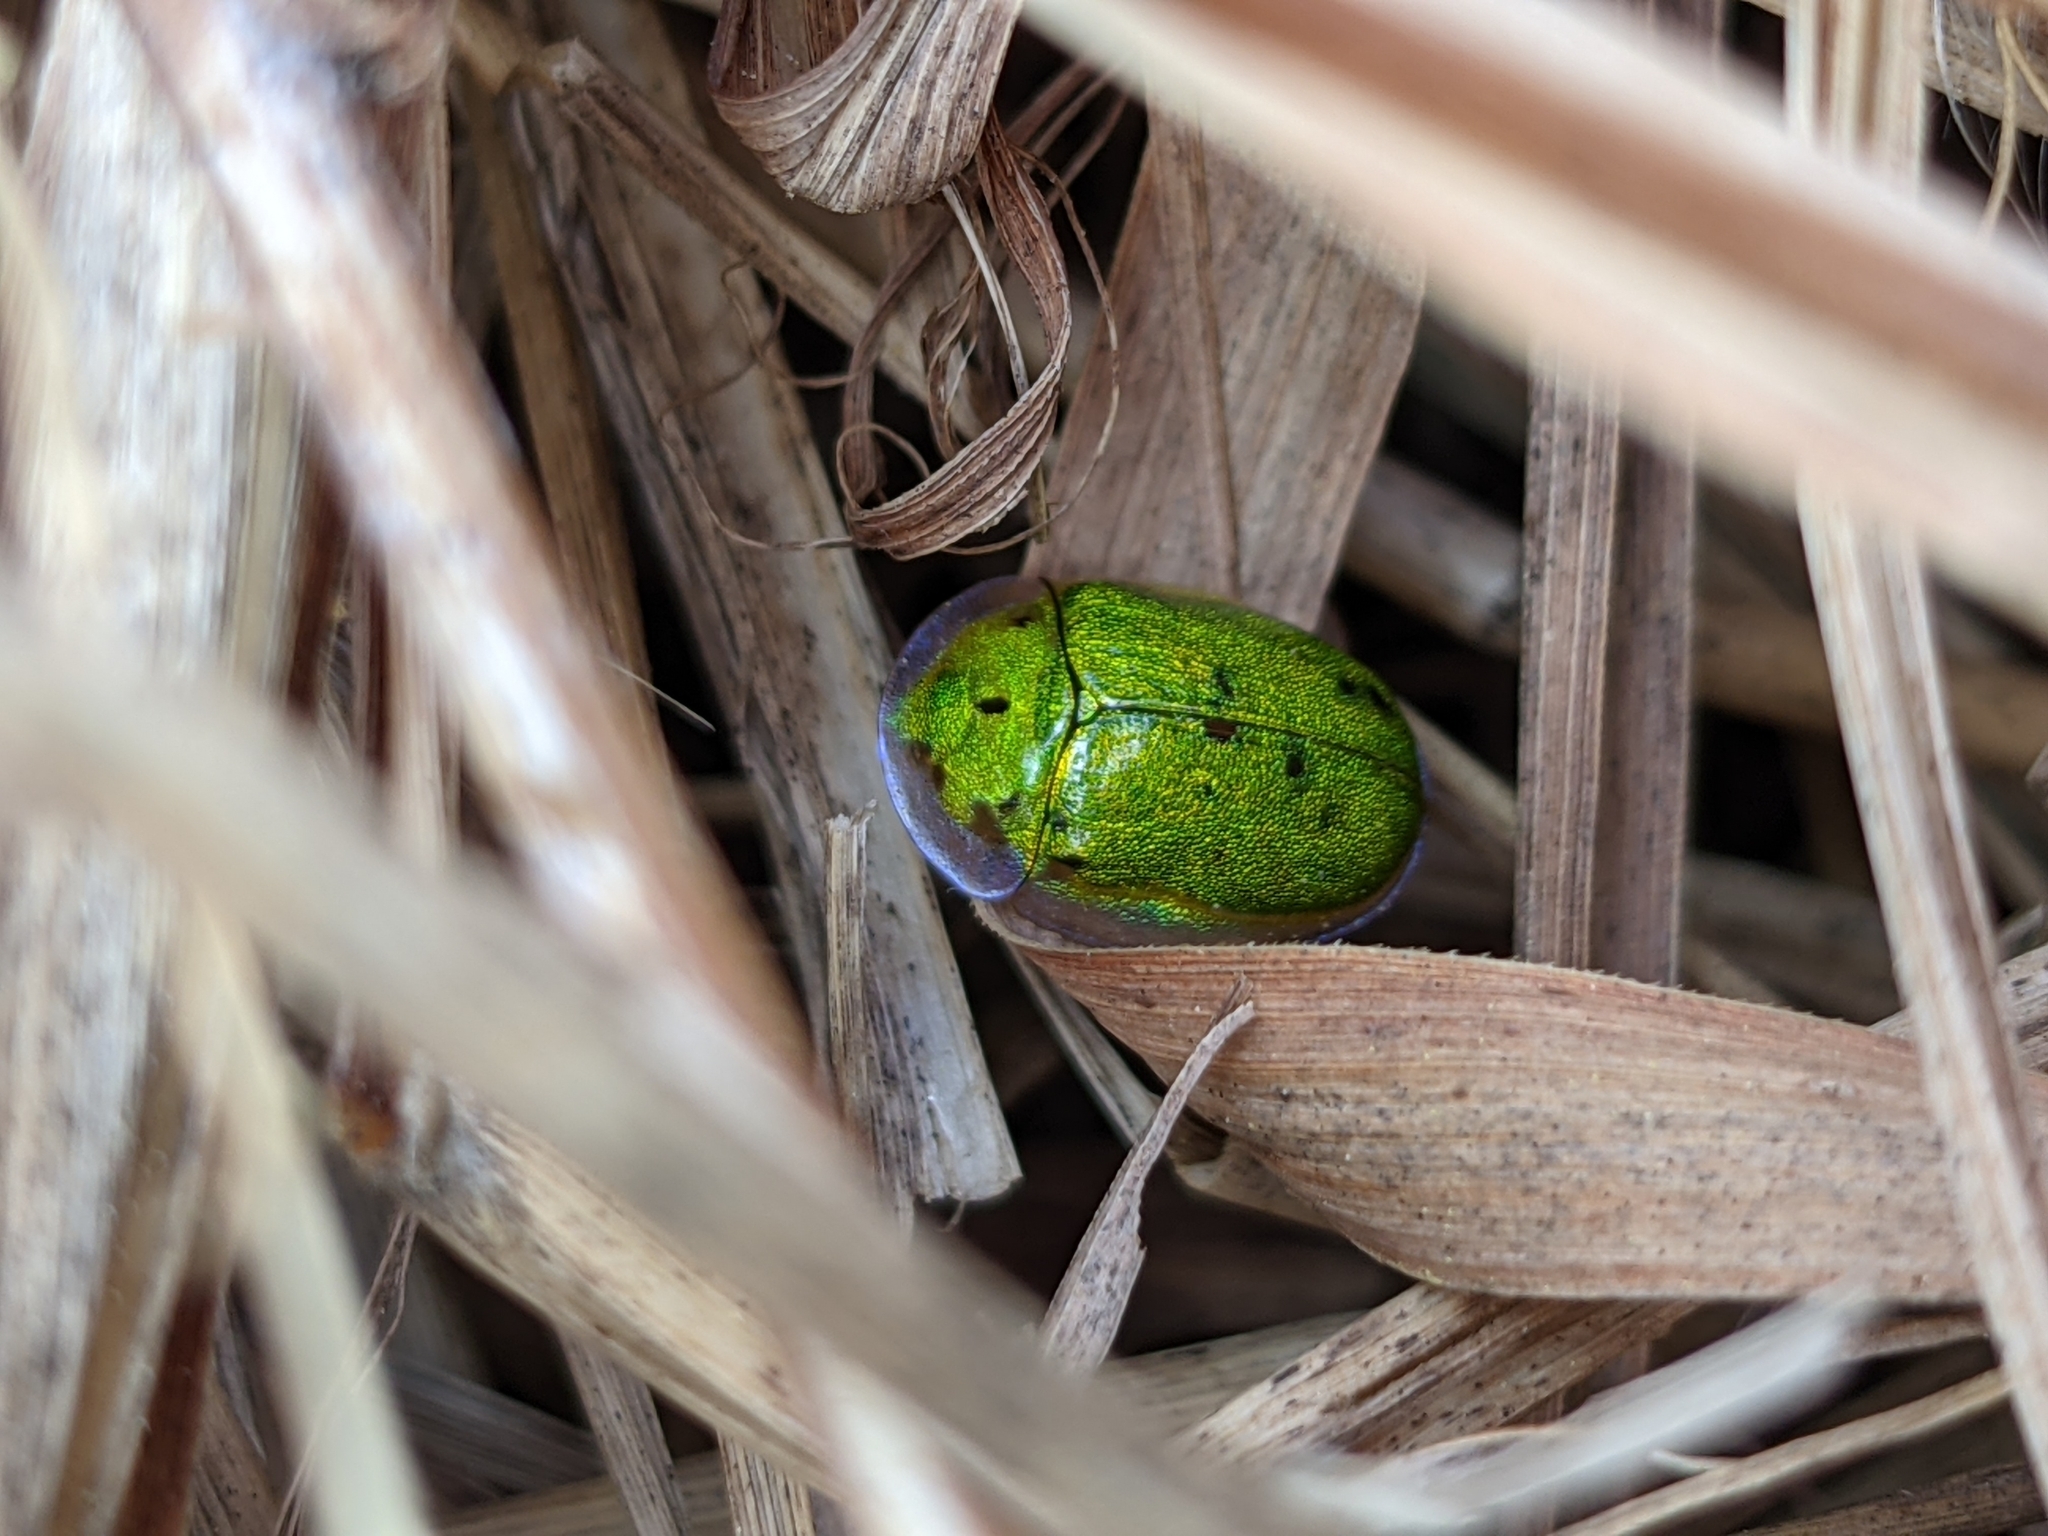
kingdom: Animalia
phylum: Arthropoda
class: Insecta
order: Coleoptera
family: Chrysomelidae
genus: Physonota
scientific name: Physonota helianthi
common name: Sunflower tortoise beetle
